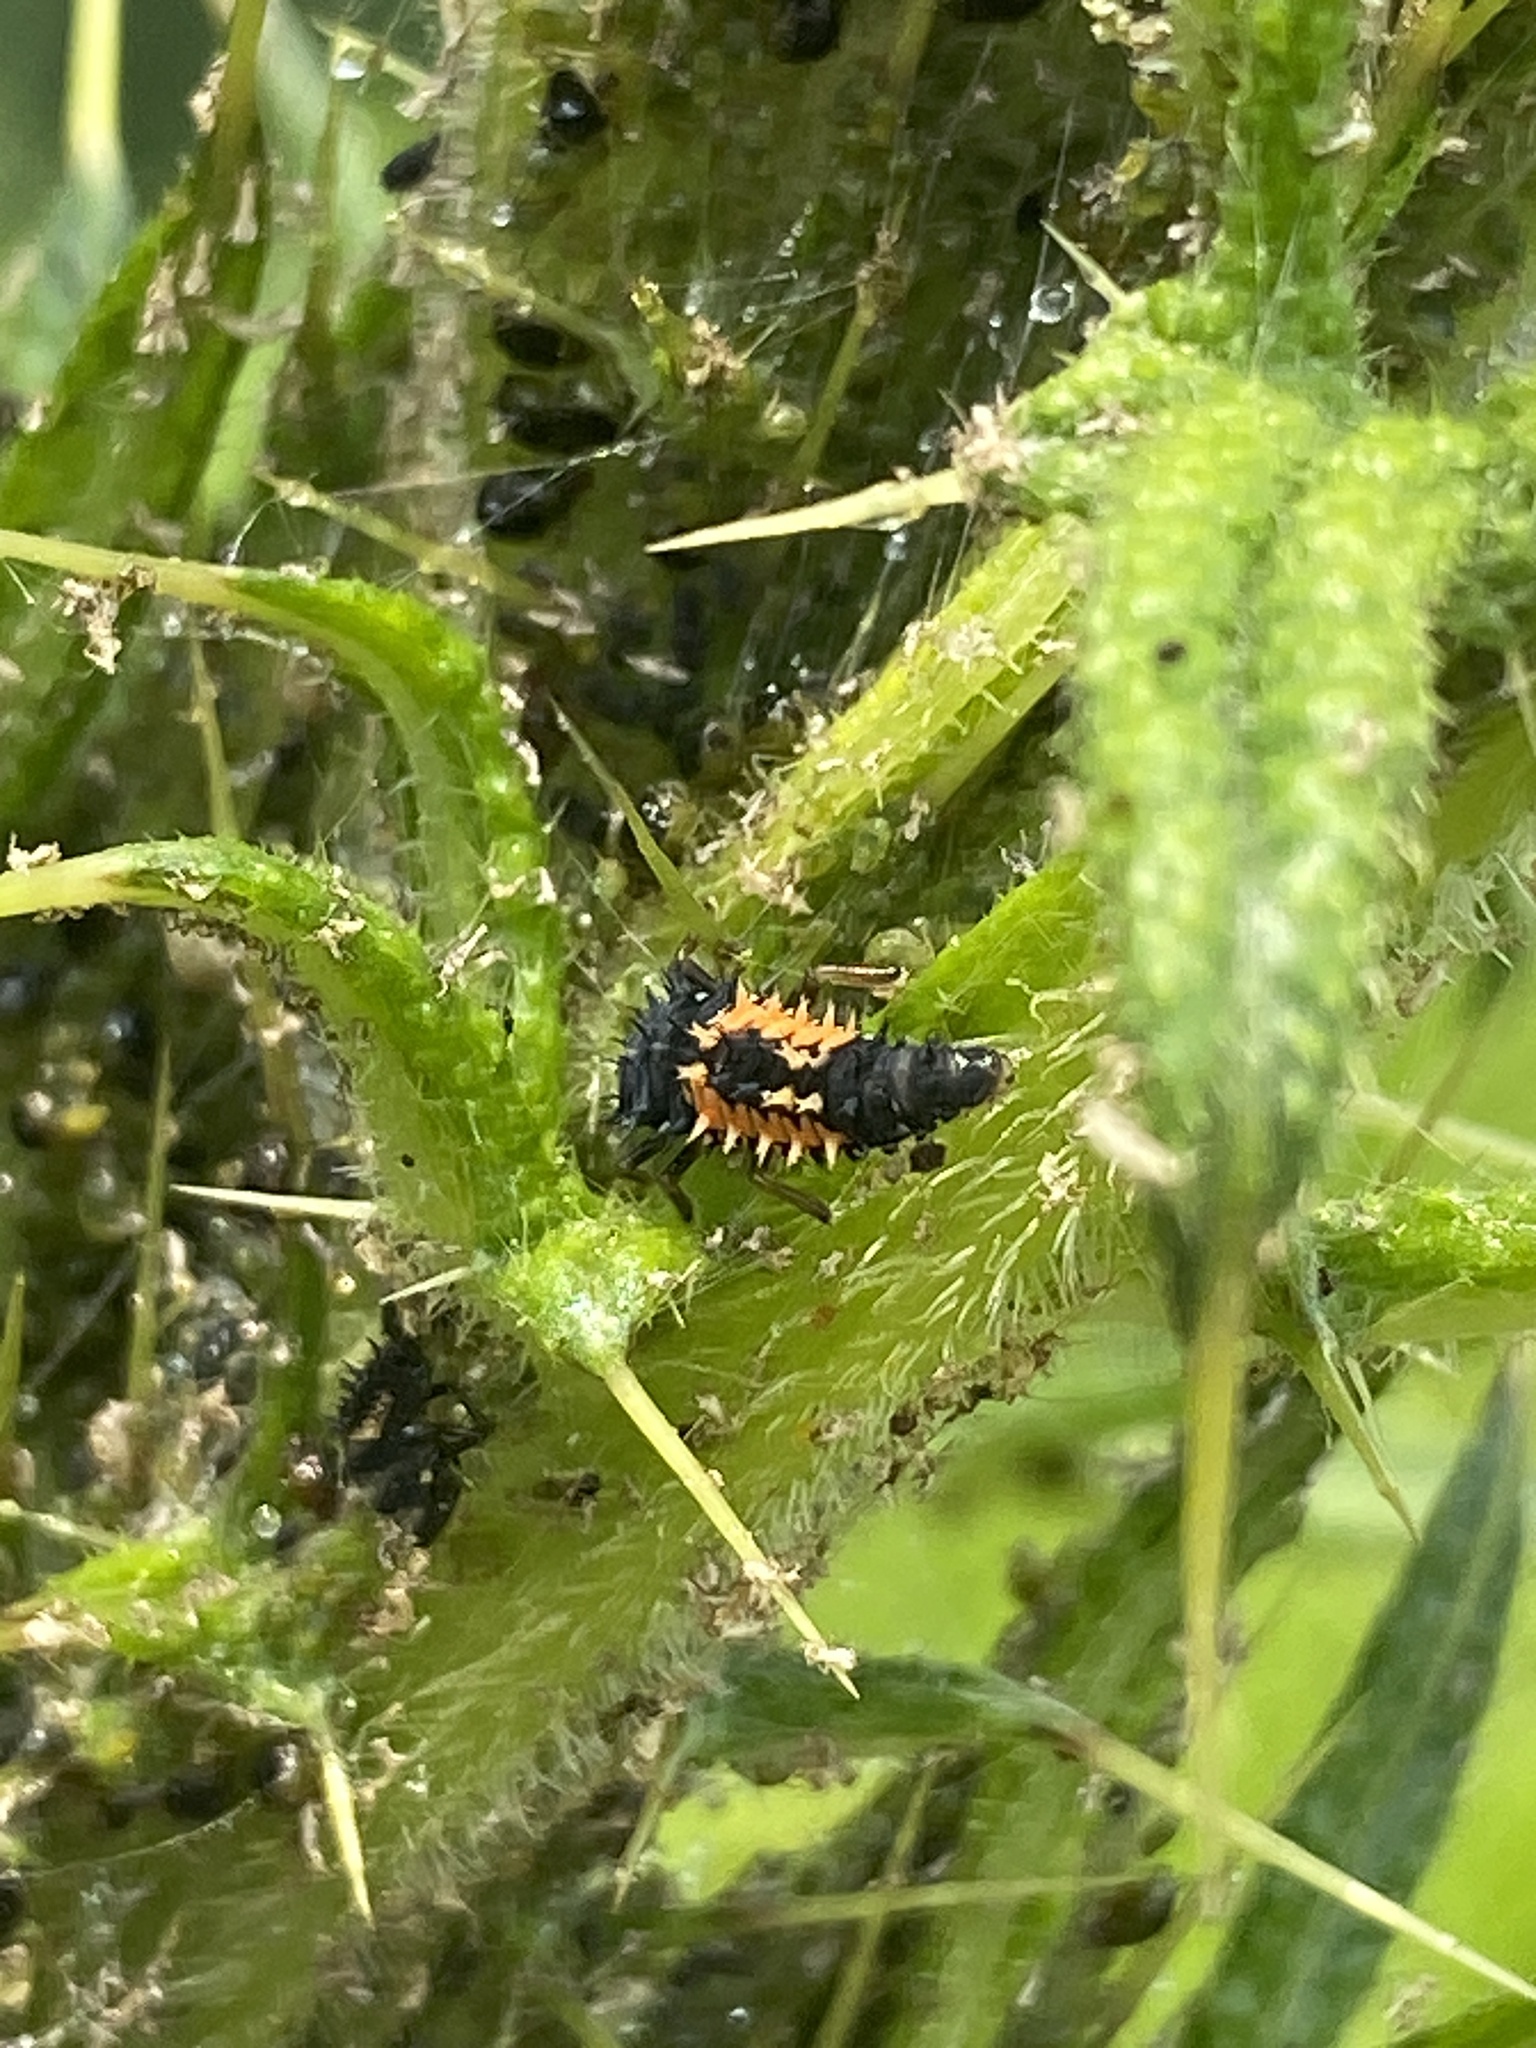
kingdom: Animalia
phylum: Arthropoda
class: Insecta
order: Coleoptera
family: Coccinellidae
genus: Coccinella
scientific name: Coccinella septempunctata
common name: Sevenspotted lady beetle
